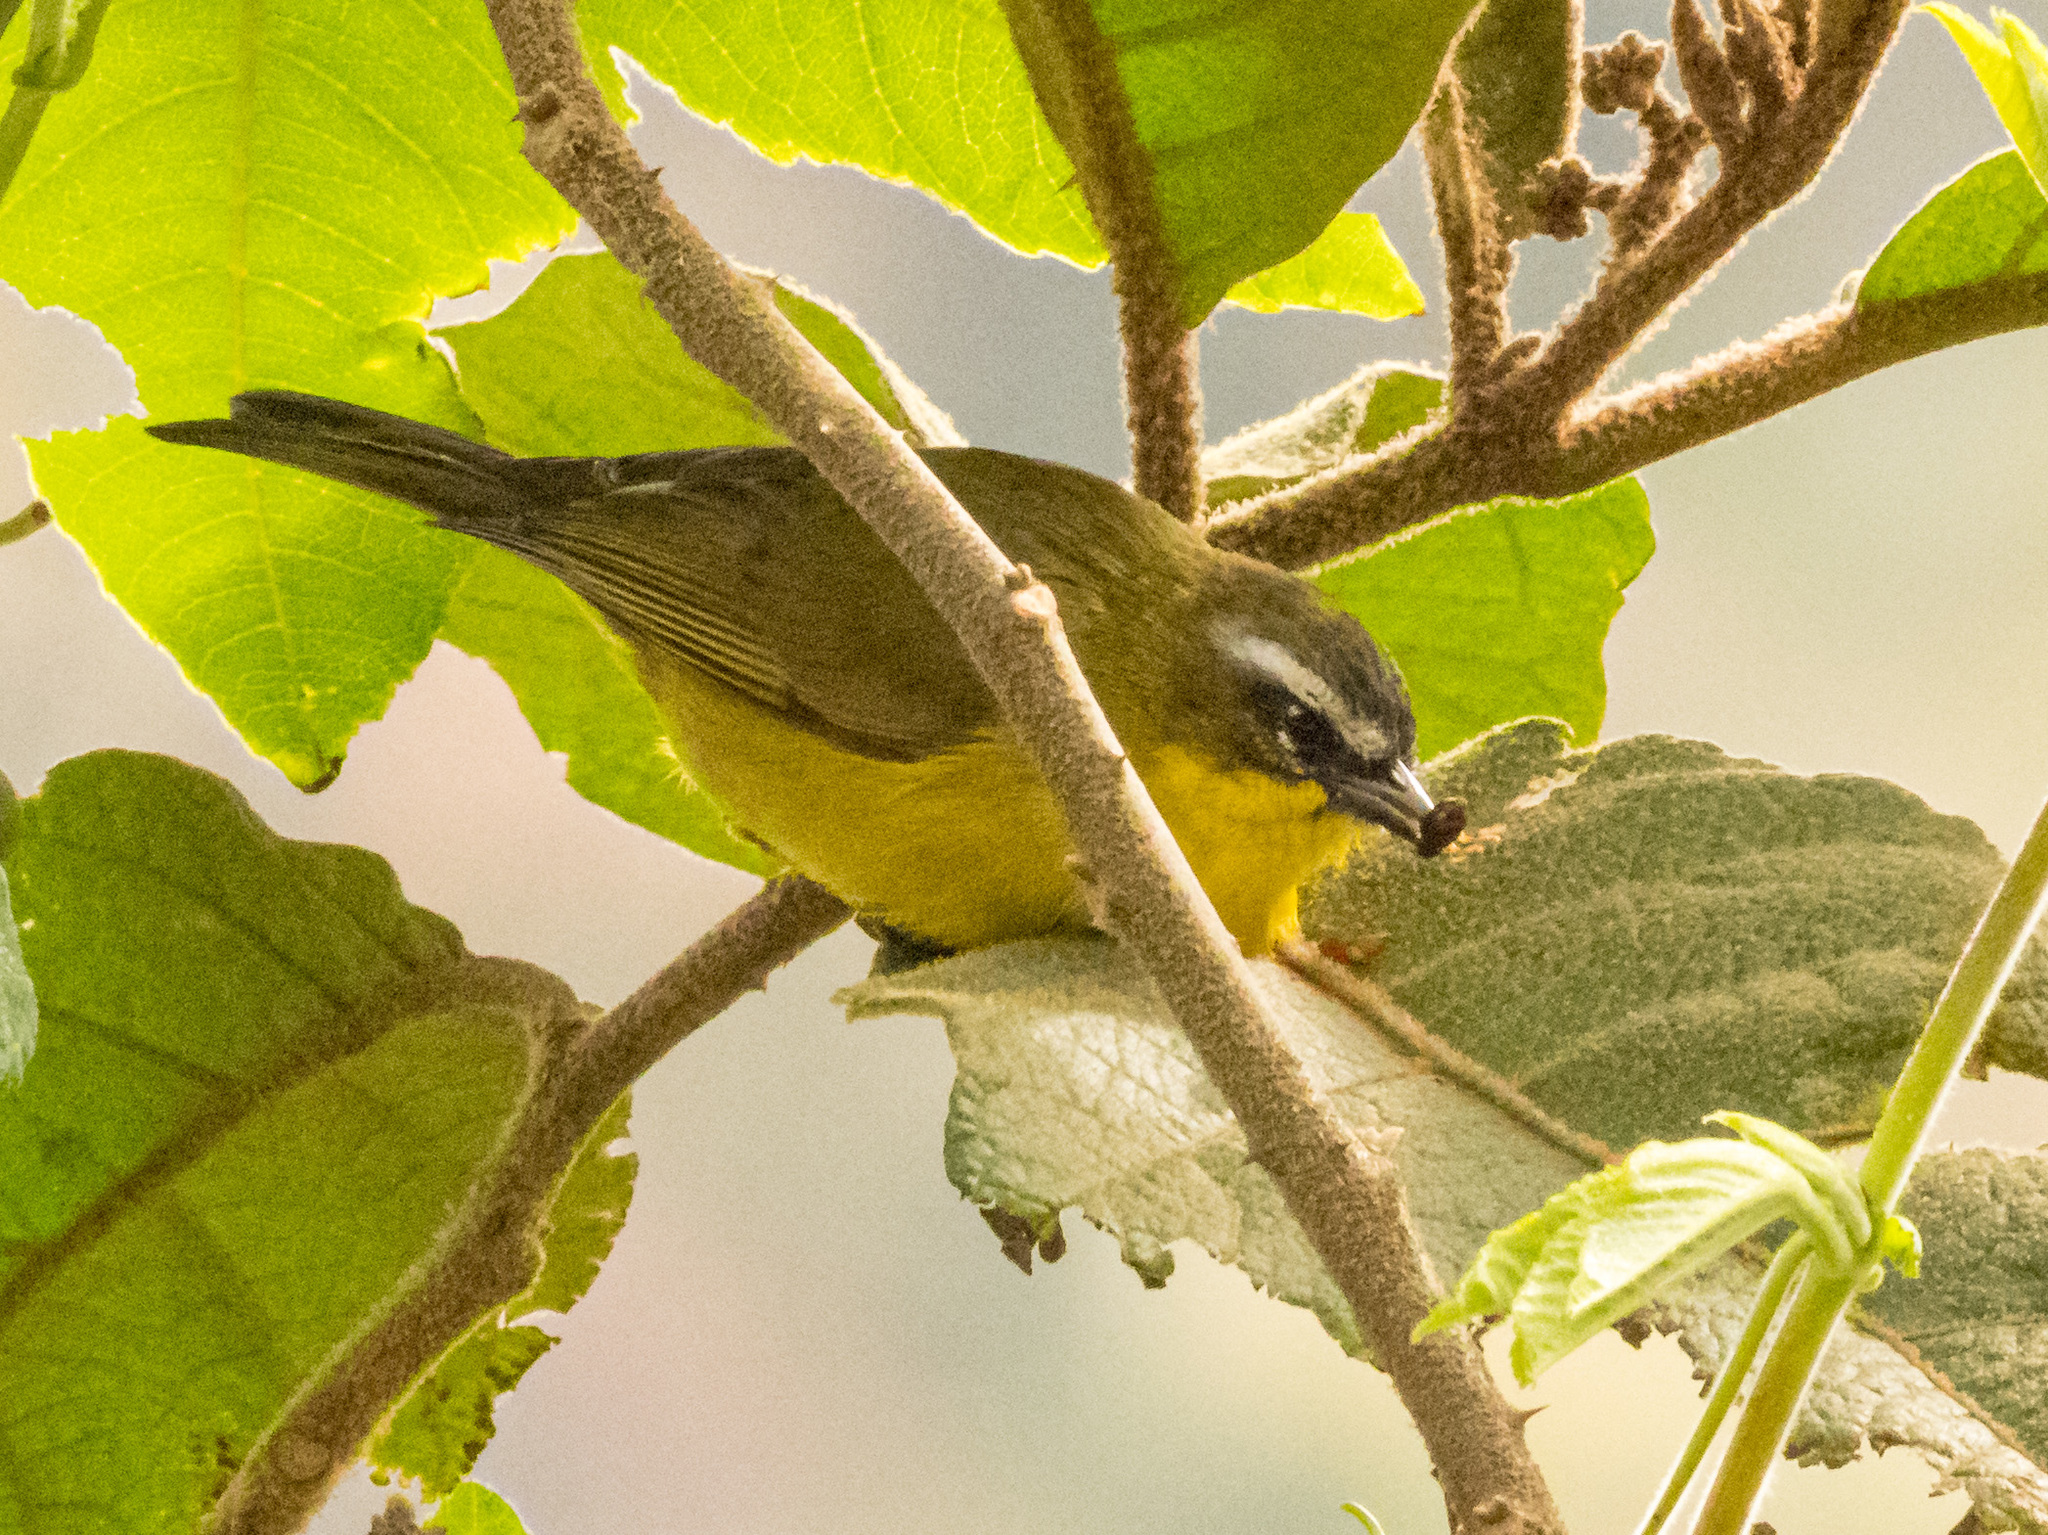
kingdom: Animalia
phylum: Chordata
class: Aves
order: Passeriformes
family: Thraupidae
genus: Thlypopsis
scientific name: Thlypopsis superciliaris
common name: Superciliaried hemispingus
